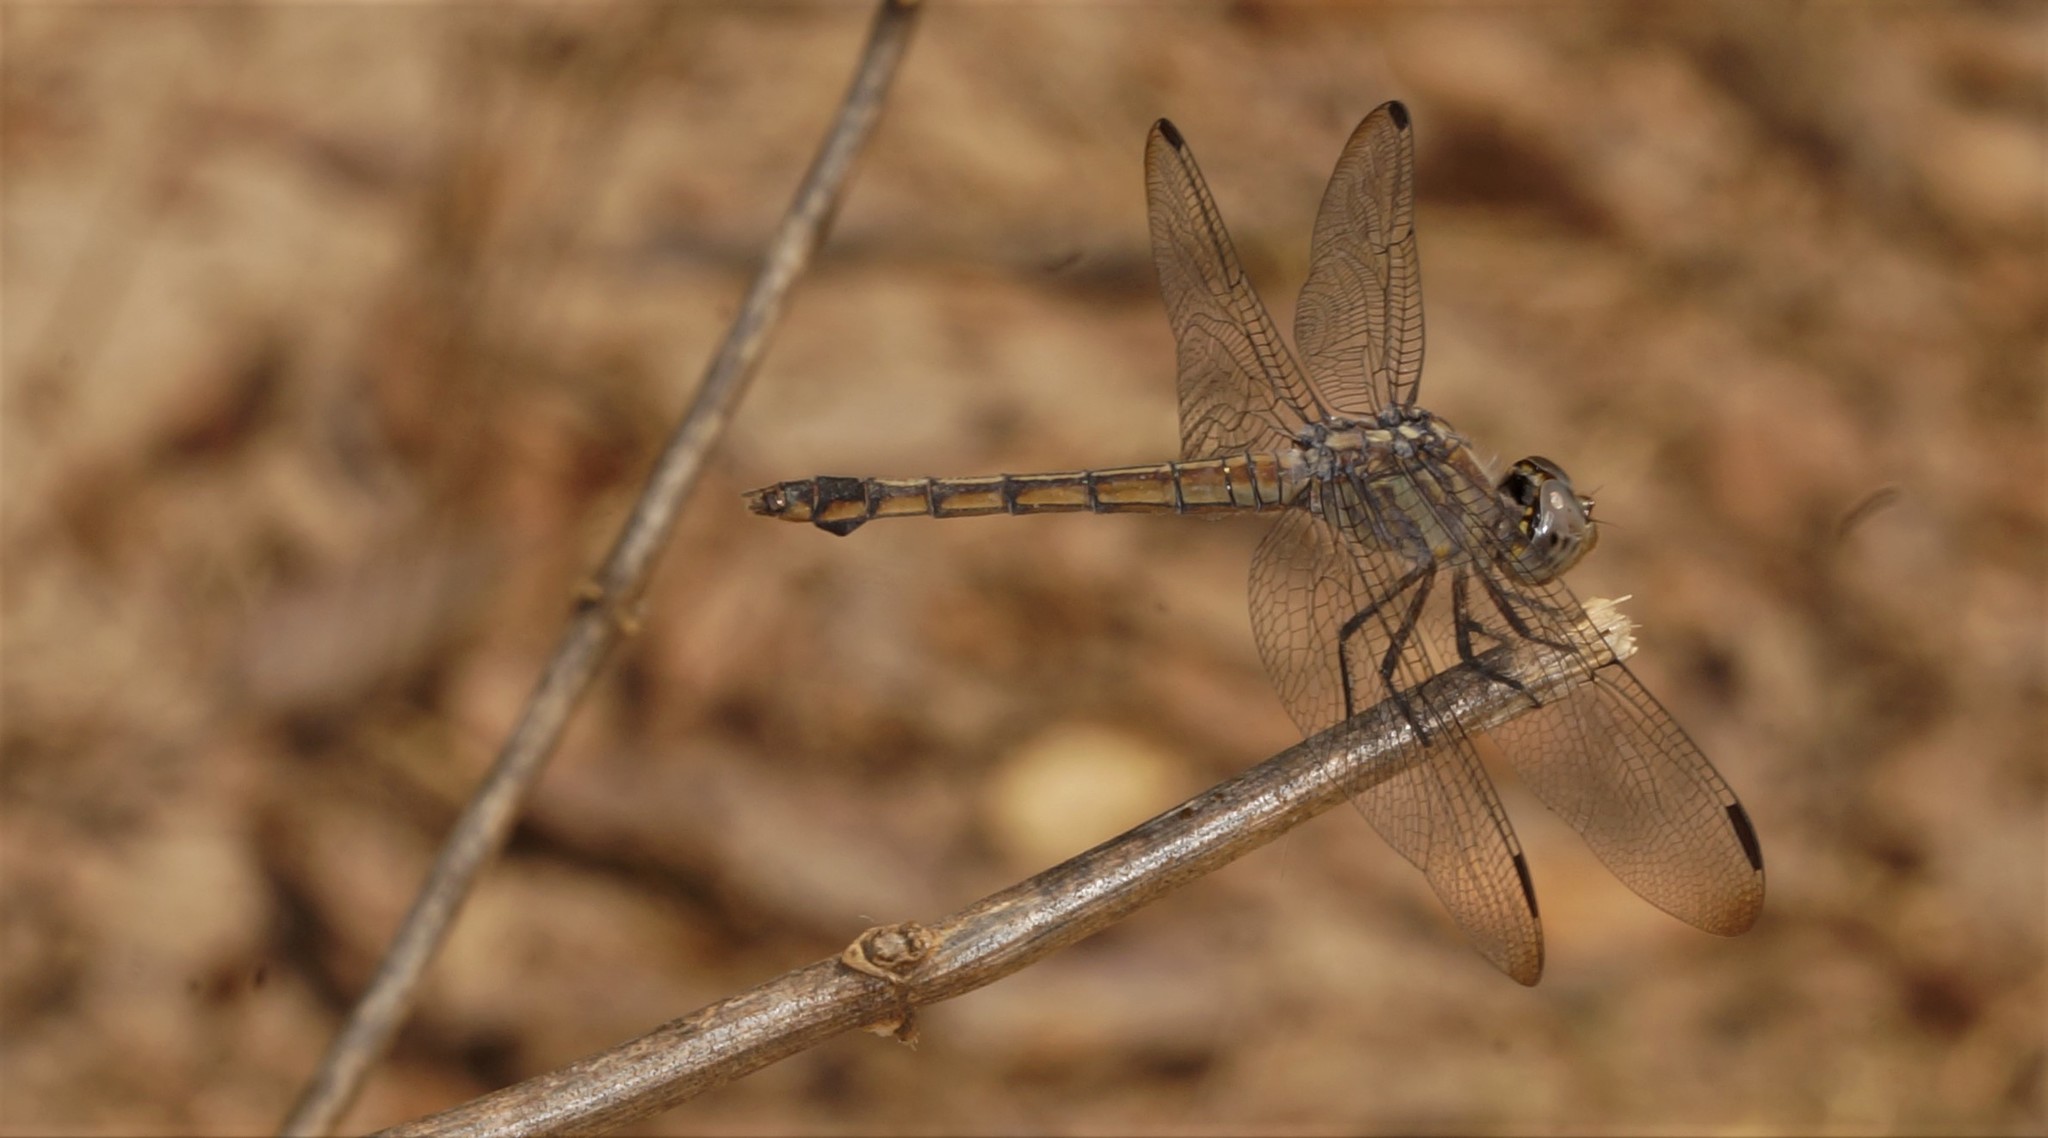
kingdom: Animalia
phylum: Arthropoda
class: Insecta
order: Odonata
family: Libellulidae
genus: Potamarcha
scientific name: Potamarcha congener
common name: Blue chaser
